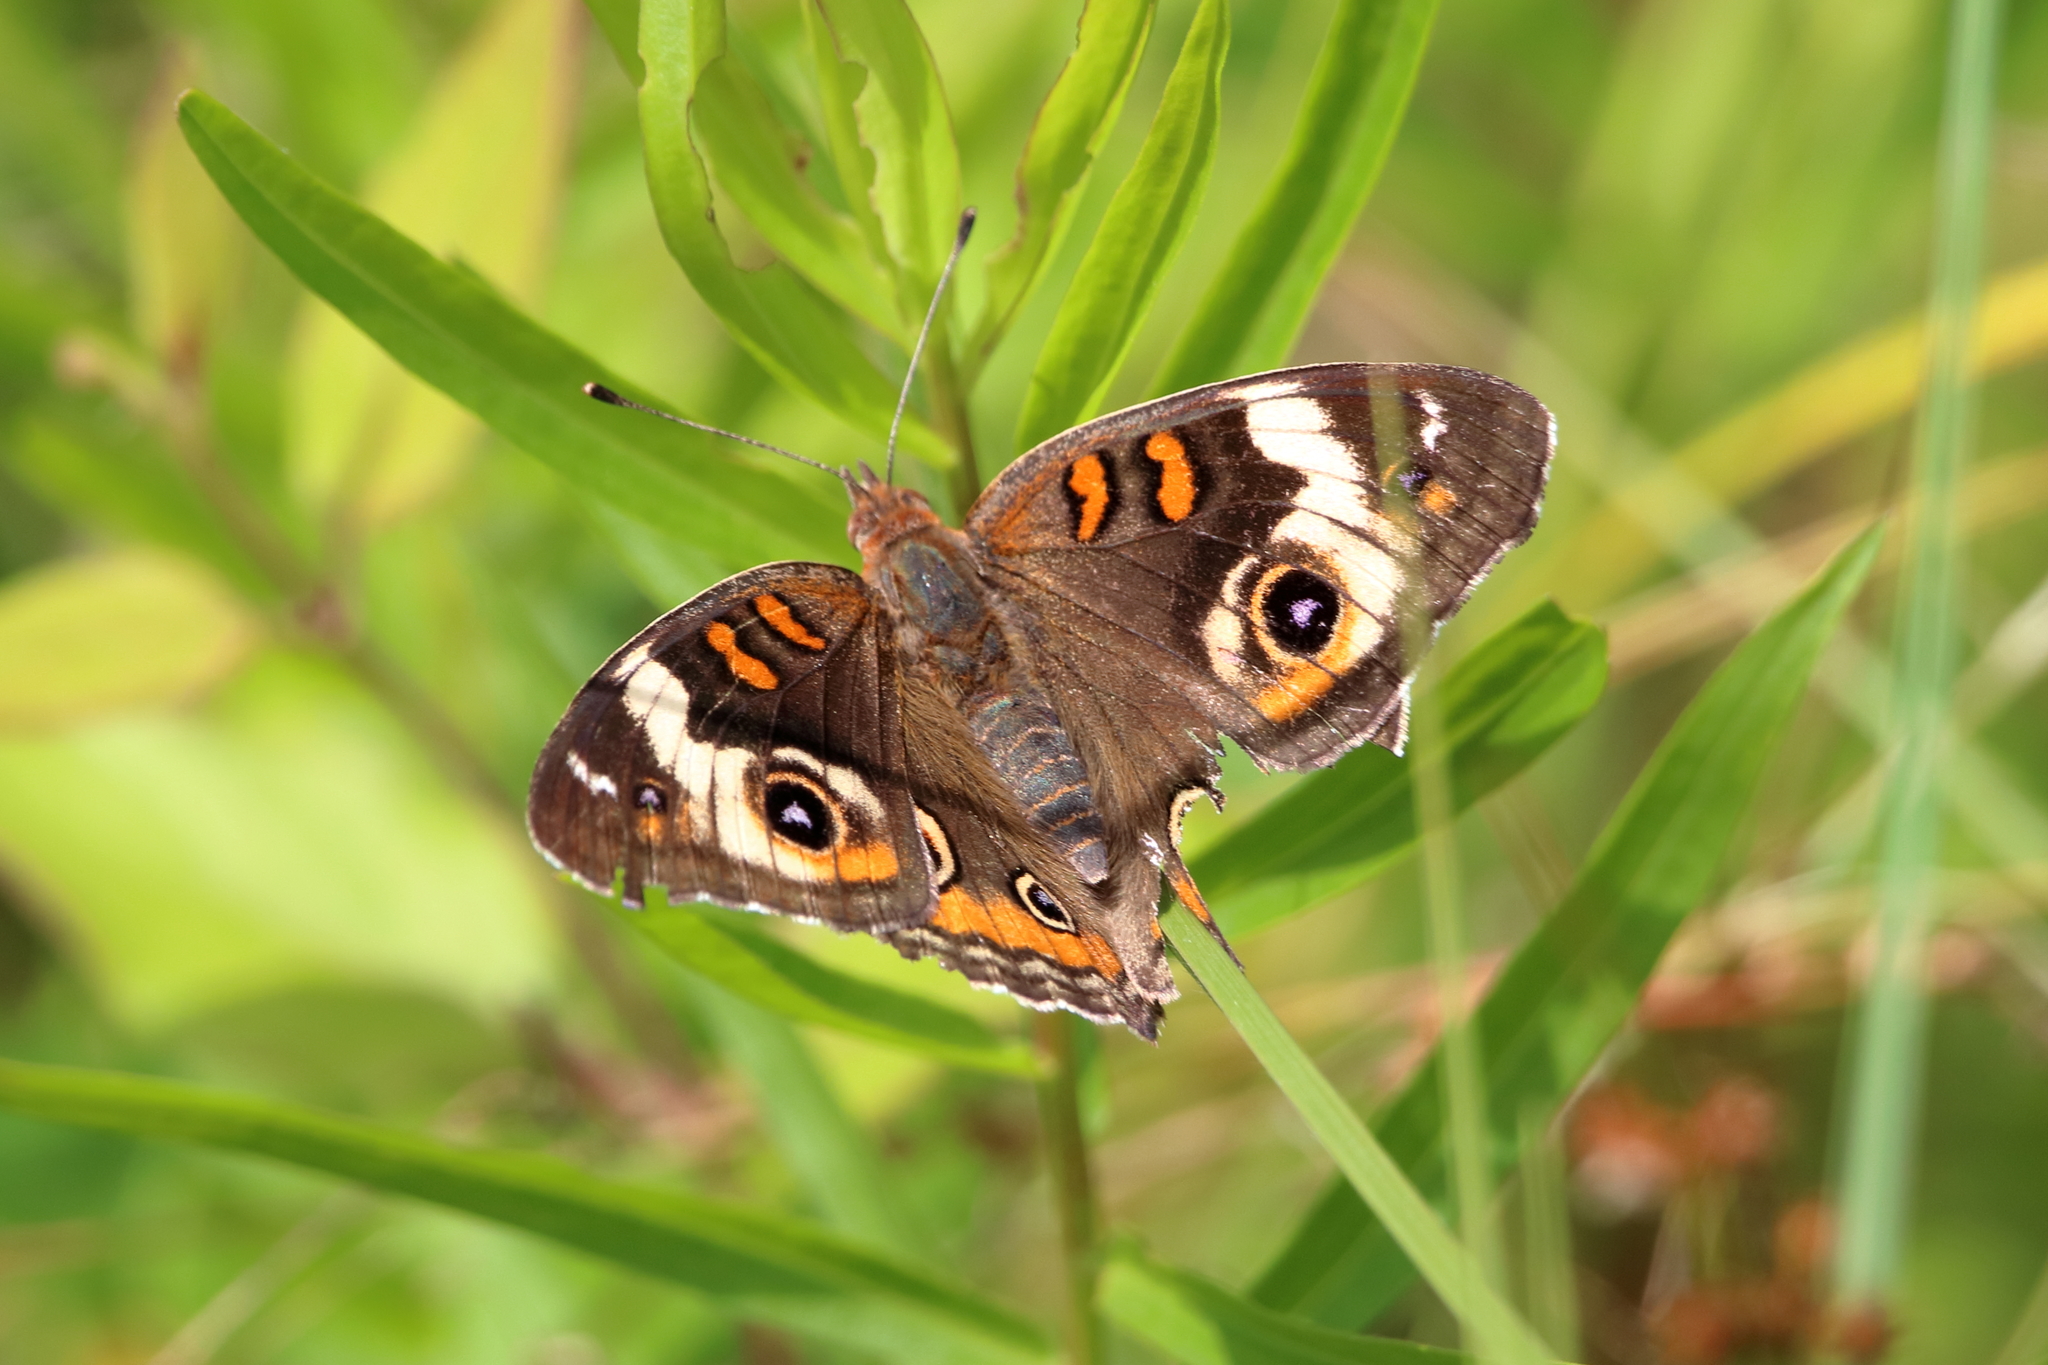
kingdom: Animalia
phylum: Arthropoda
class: Insecta
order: Lepidoptera
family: Nymphalidae
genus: Junonia
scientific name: Junonia coenia
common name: Common buckeye
